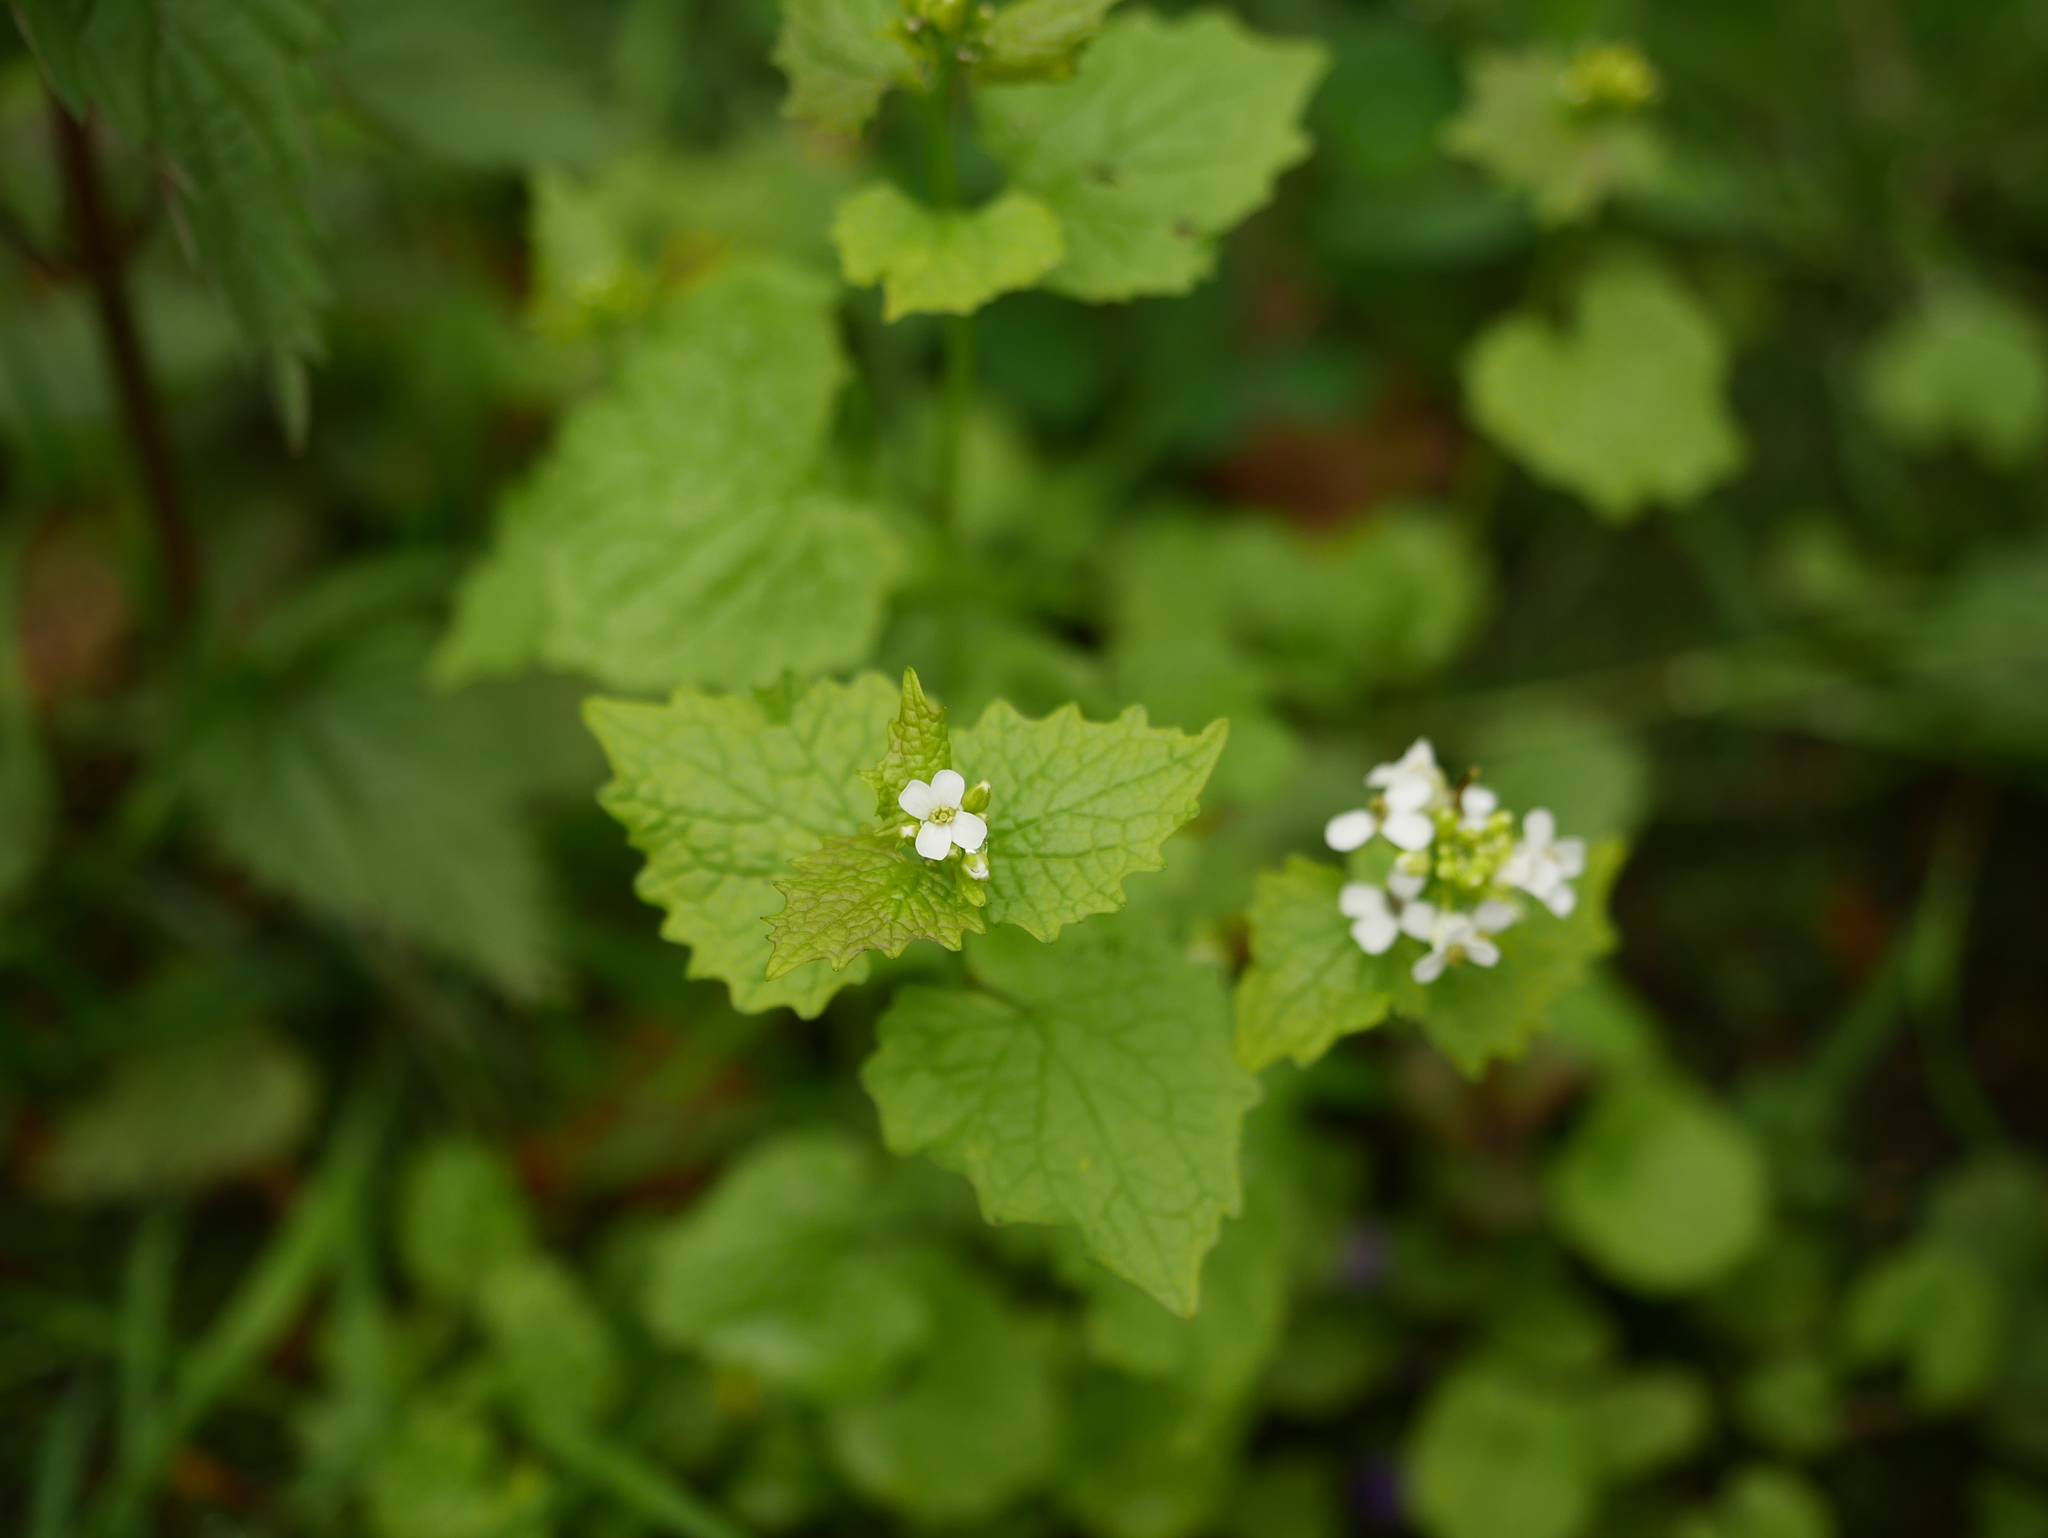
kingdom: Plantae
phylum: Tracheophyta
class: Magnoliopsida
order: Brassicales
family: Brassicaceae
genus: Alliaria
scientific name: Alliaria petiolata
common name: Garlic mustard
